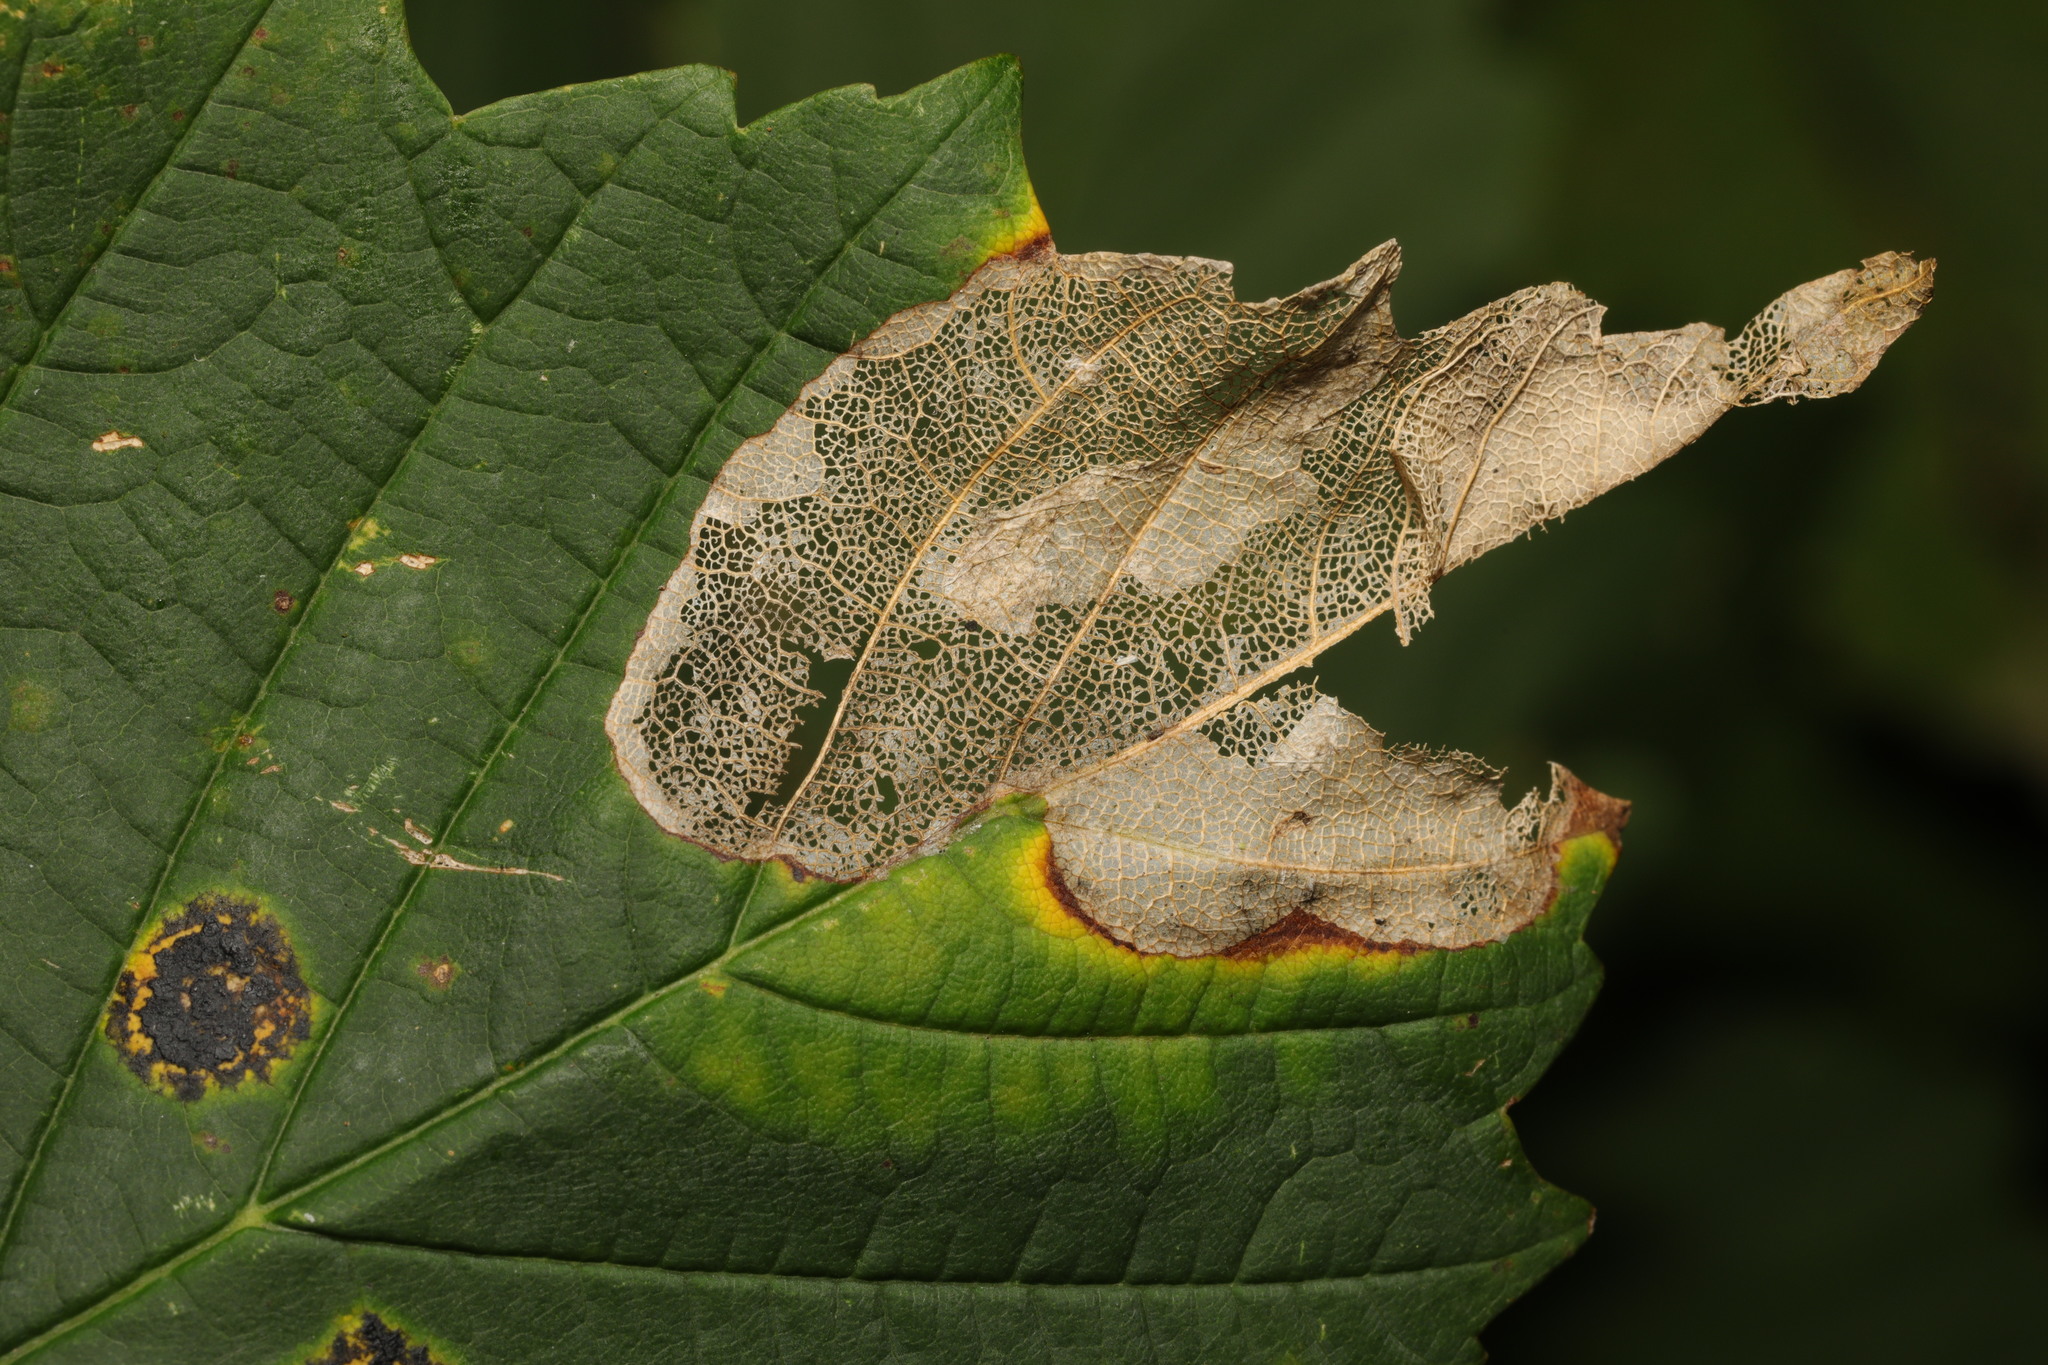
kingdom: Fungi
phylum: Ascomycota
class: Leotiomycetes
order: Rhytismatales
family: Rhytismataceae
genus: Rhytisma
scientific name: Rhytisma acerinum
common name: European tar spot
